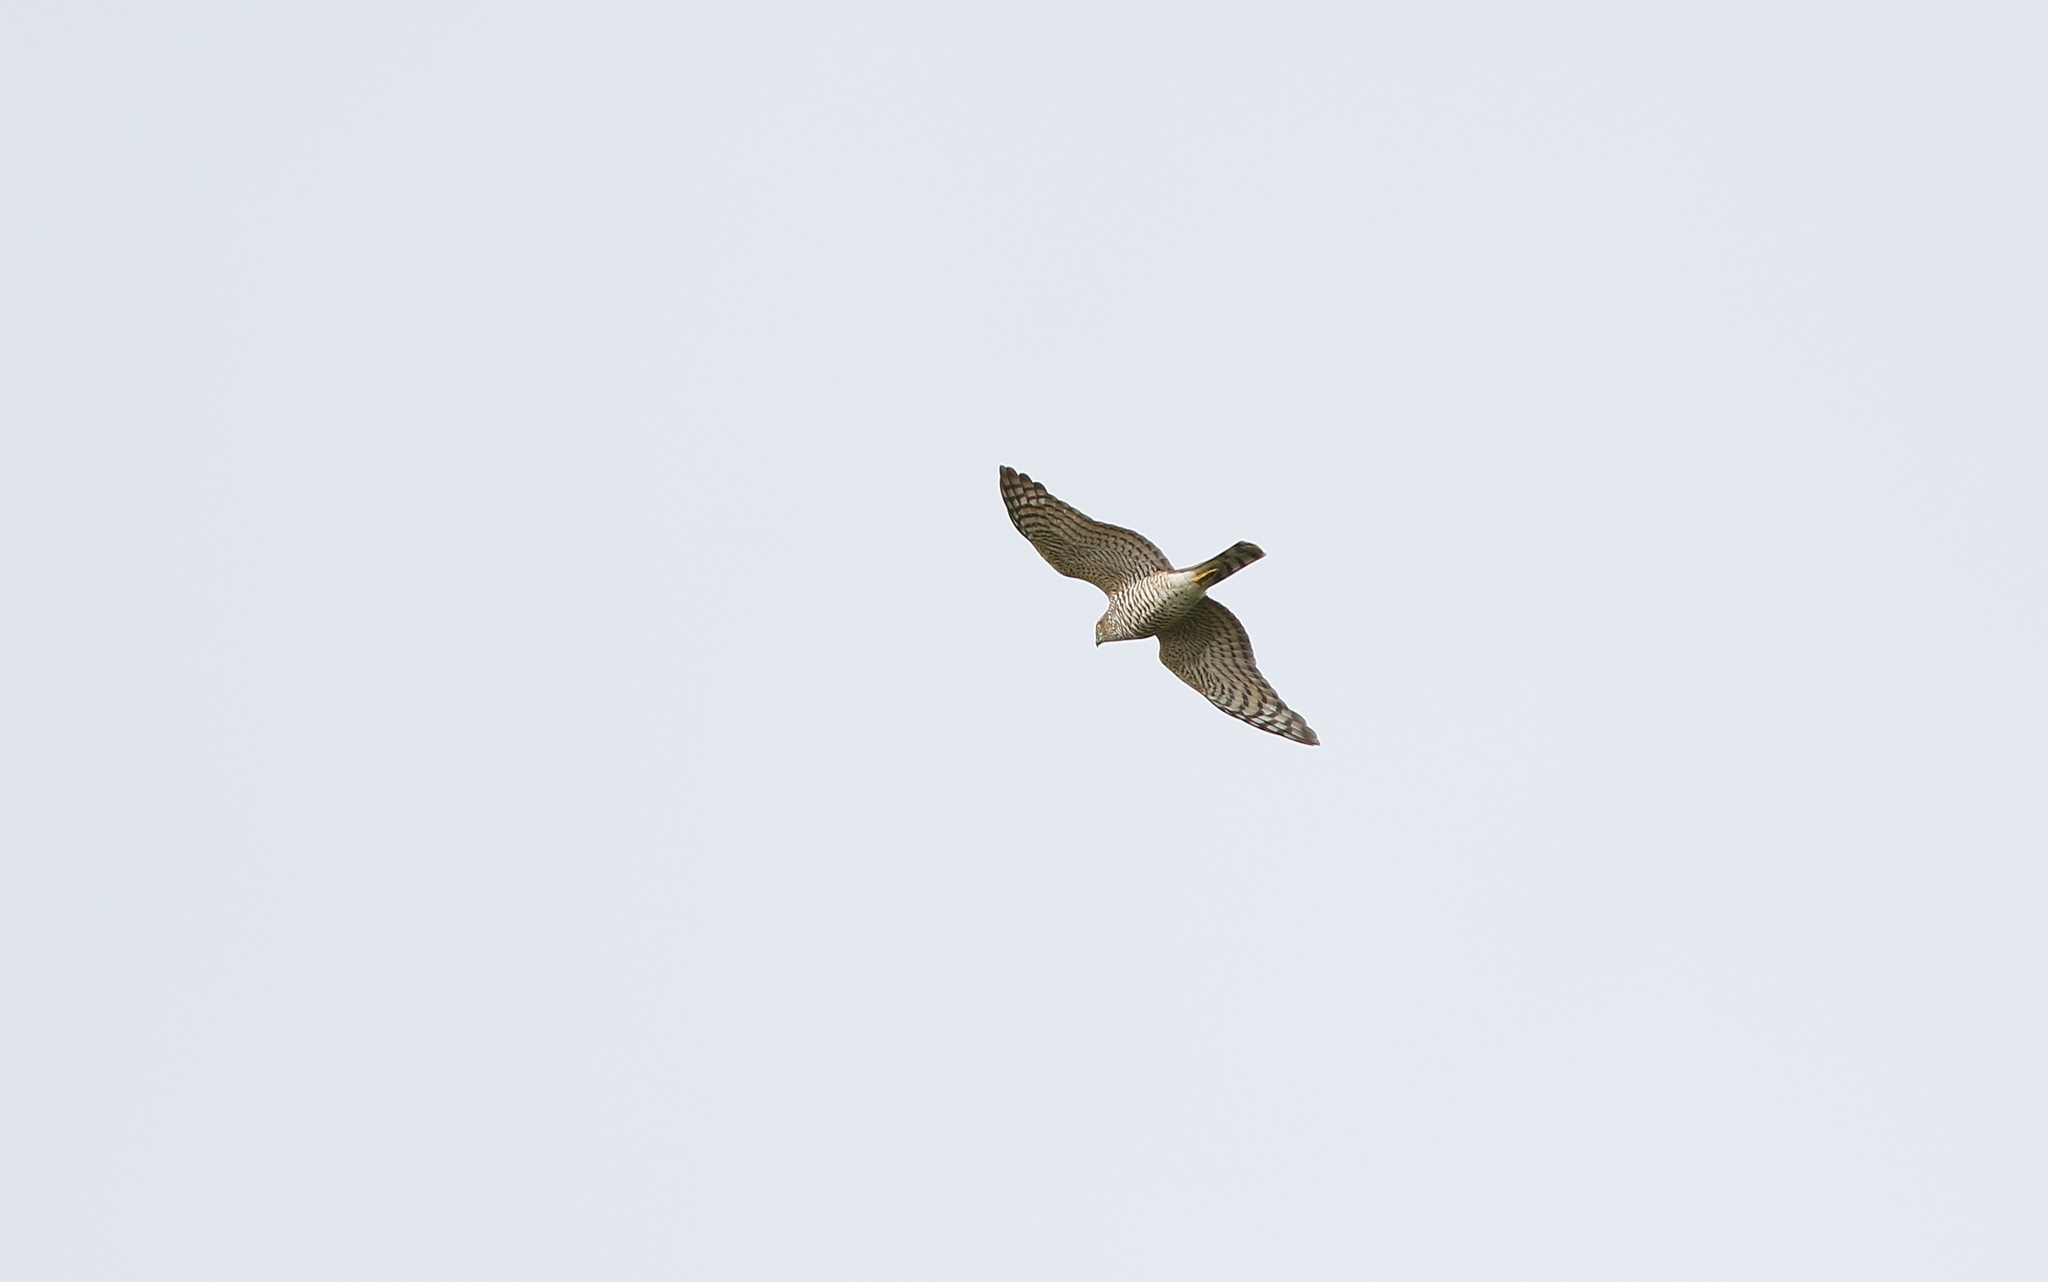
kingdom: Animalia
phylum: Chordata
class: Aves
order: Accipitriformes
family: Accipitridae
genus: Accipiter
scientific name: Accipiter nisus
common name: Eurasian sparrowhawk
